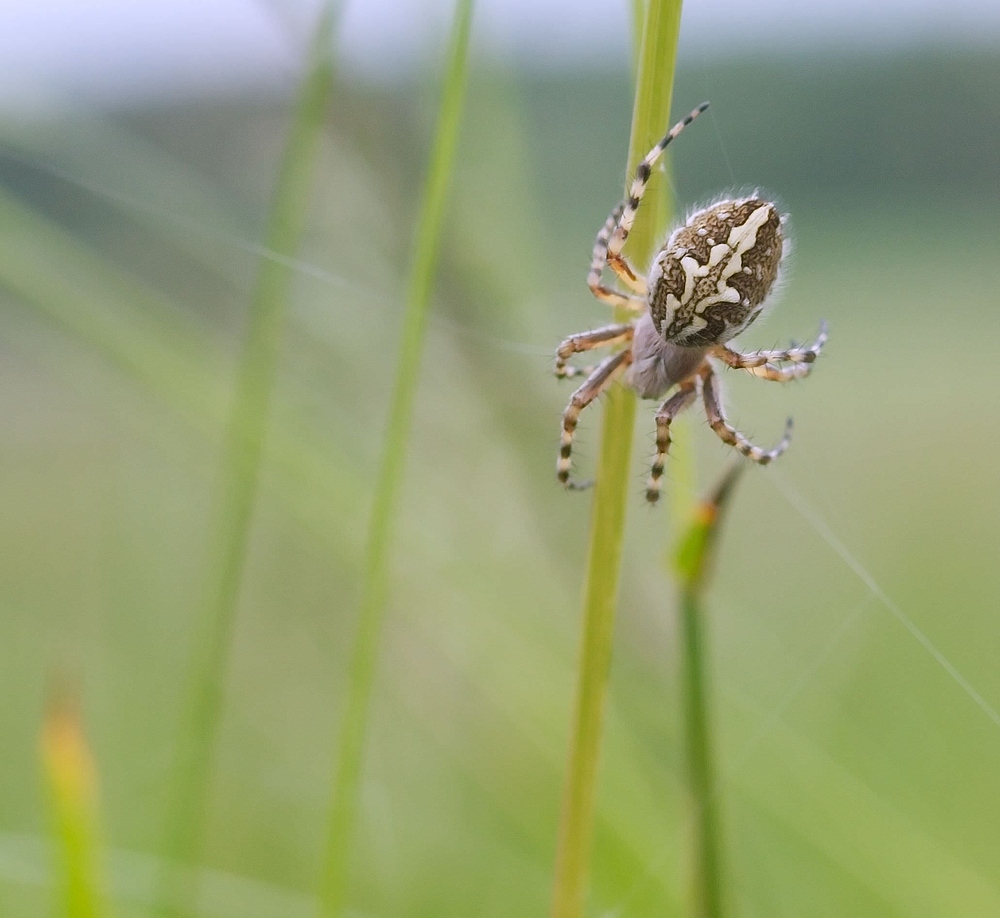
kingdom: Animalia
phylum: Arthropoda
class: Arachnida
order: Araneae
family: Araneidae
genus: Aculepeira
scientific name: Aculepeira ceropegia
